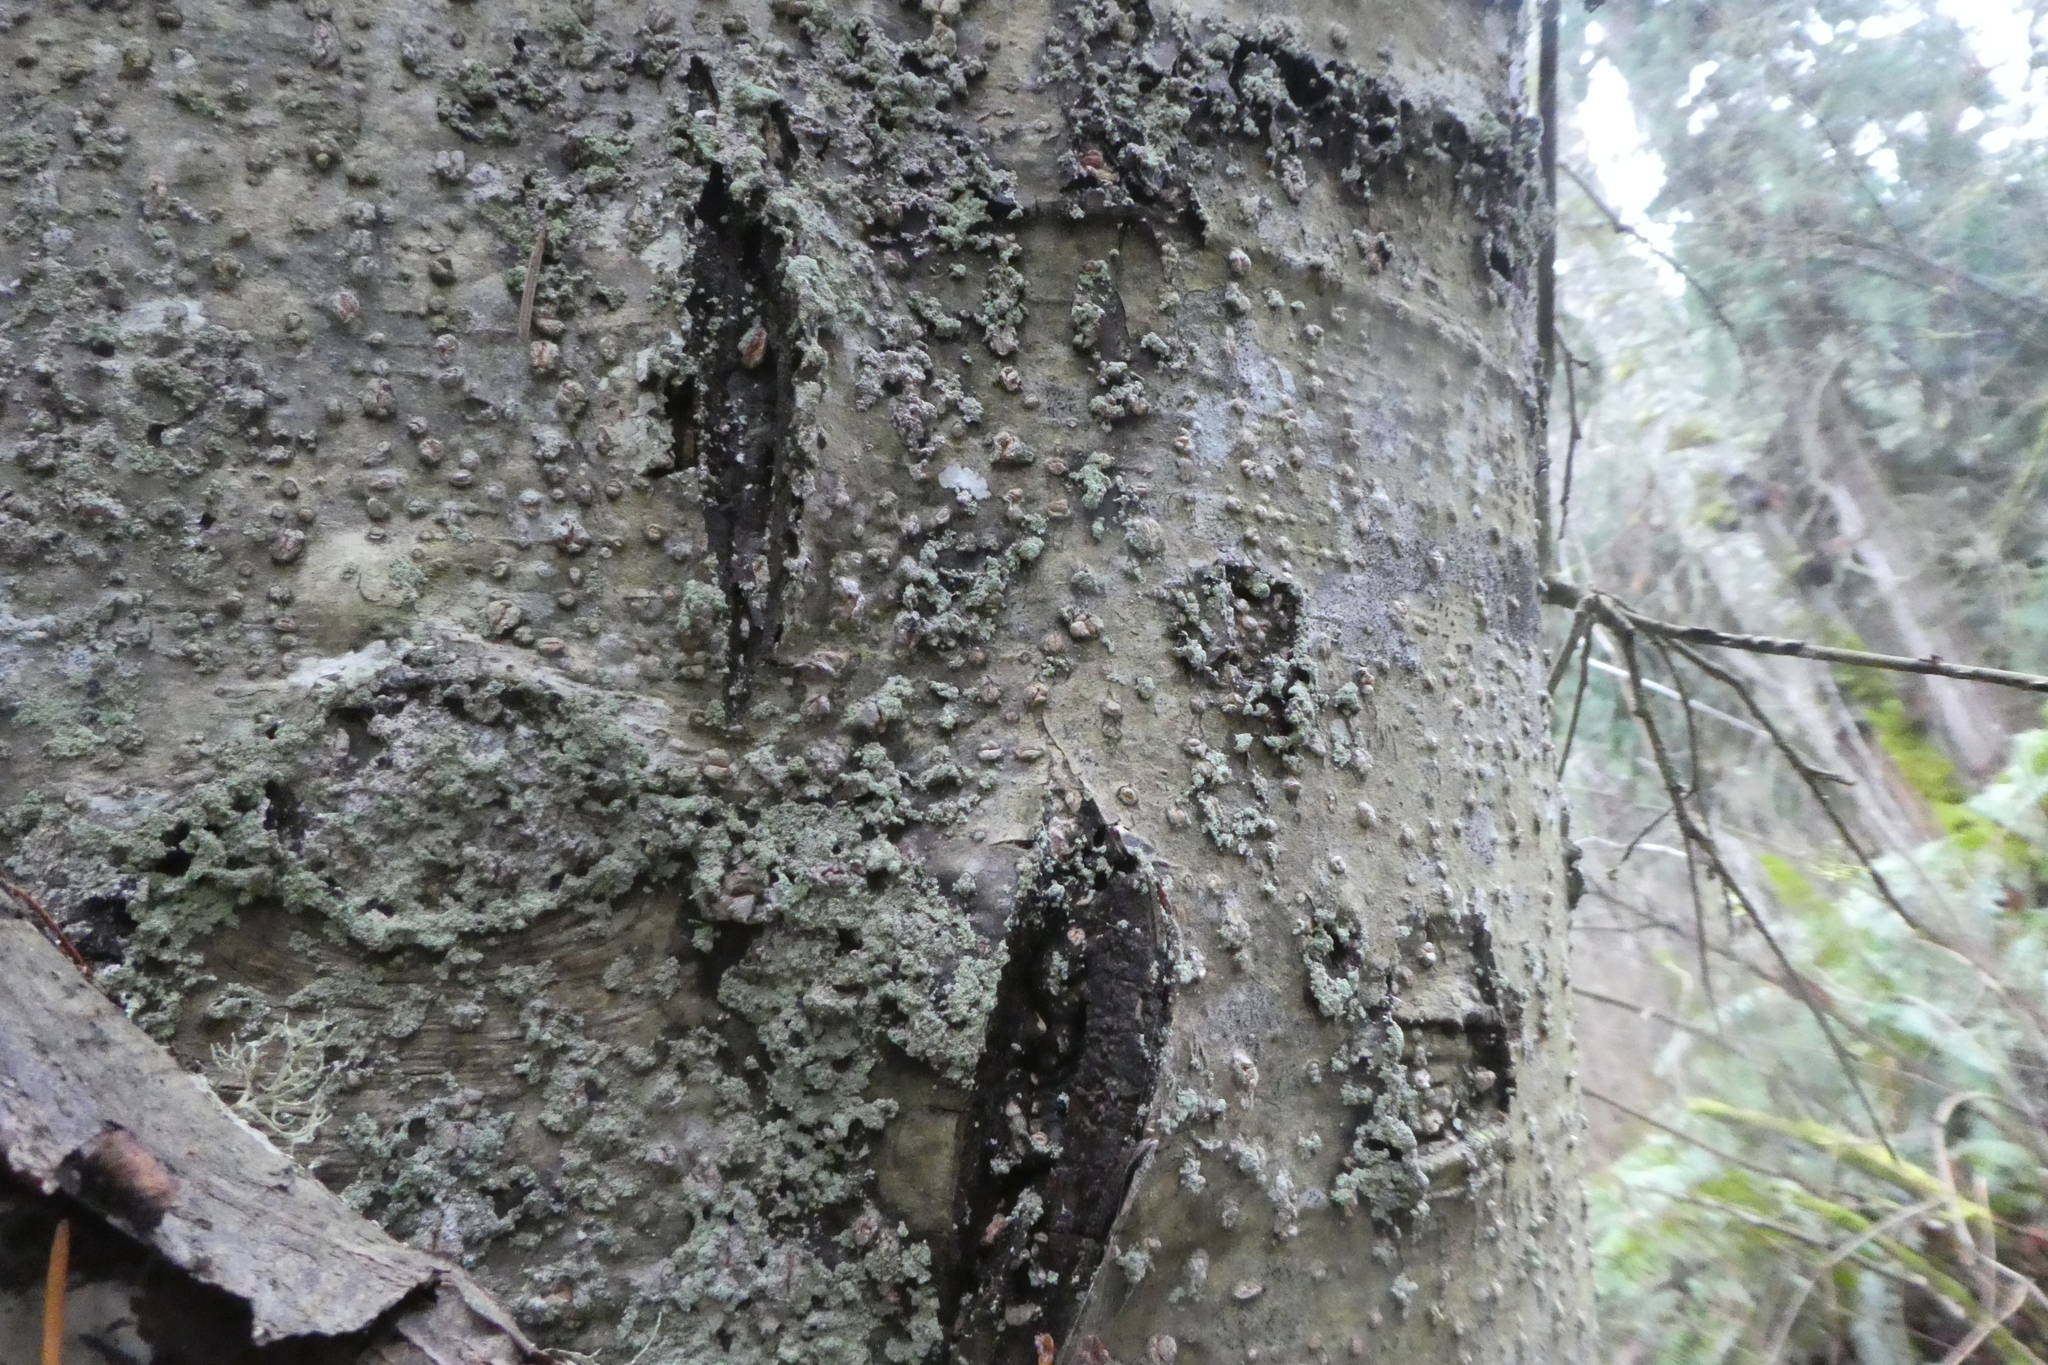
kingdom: Plantae
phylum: Tracheophyta
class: Magnoliopsida
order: Rosales
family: Rhamnaceae
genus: Frangula
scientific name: Frangula purshiana
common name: Cascara buckthorn
